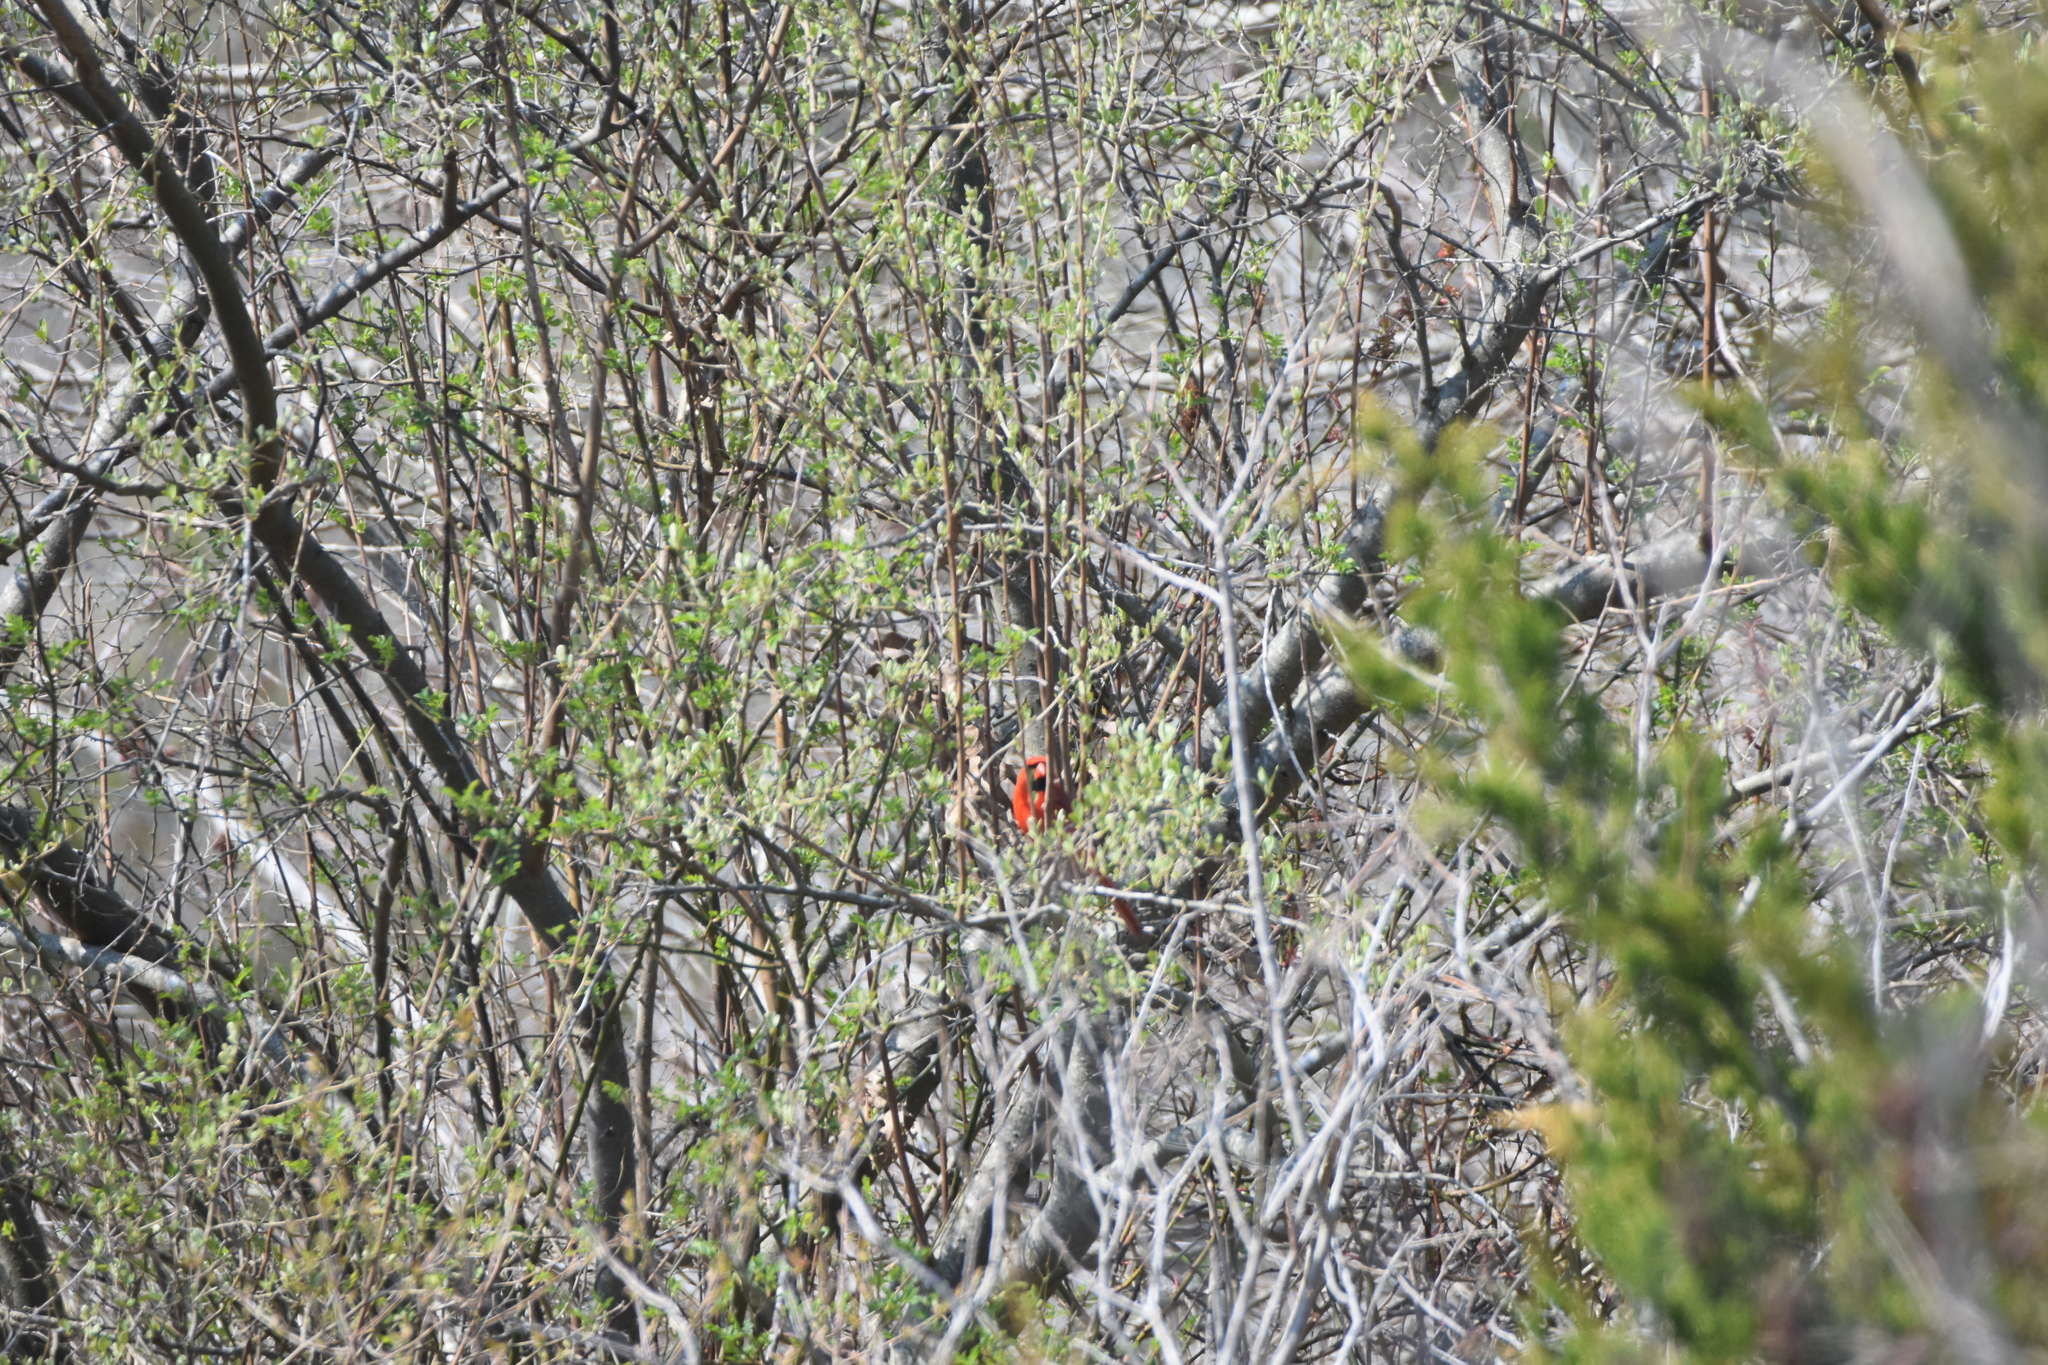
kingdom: Animalia
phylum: Chordata
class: Aves
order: Passeriformes
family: Cardinalidae
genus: Cardinalis
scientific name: Cardinalis cardinalis
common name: Northern cardinal
